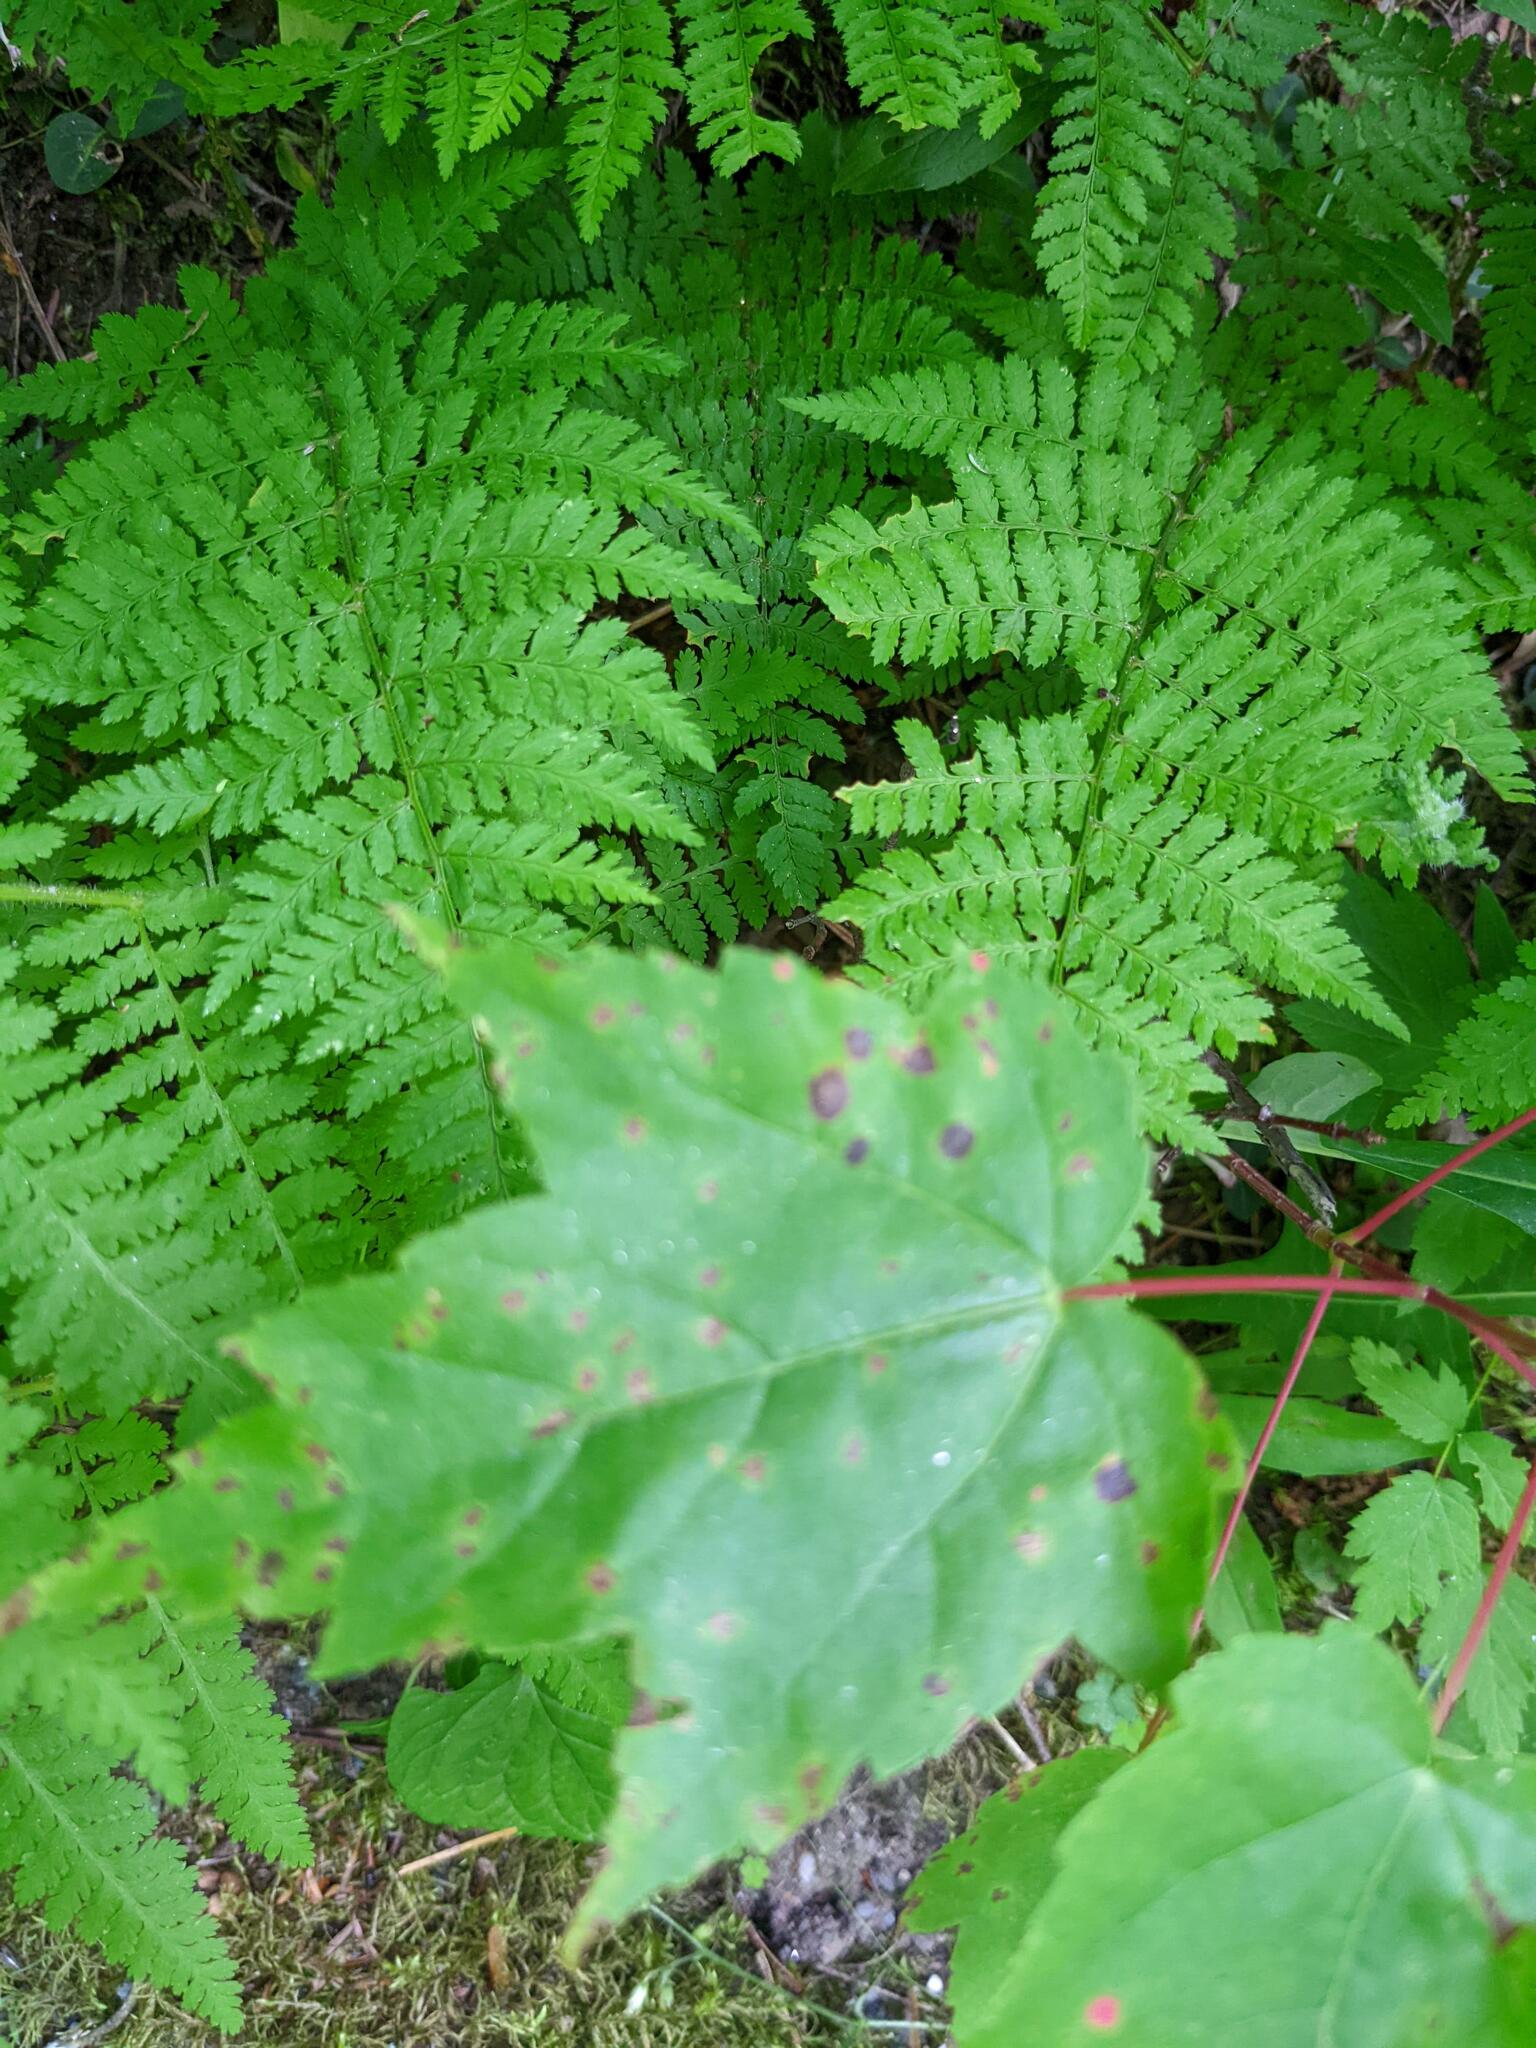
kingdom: Plantae
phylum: Tracheophyta
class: Polypodiopsida
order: Polypodiales
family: Dryopteridaceae
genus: Dryopteris
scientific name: Dryopteris intermedia
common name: Evergreen wood fern
